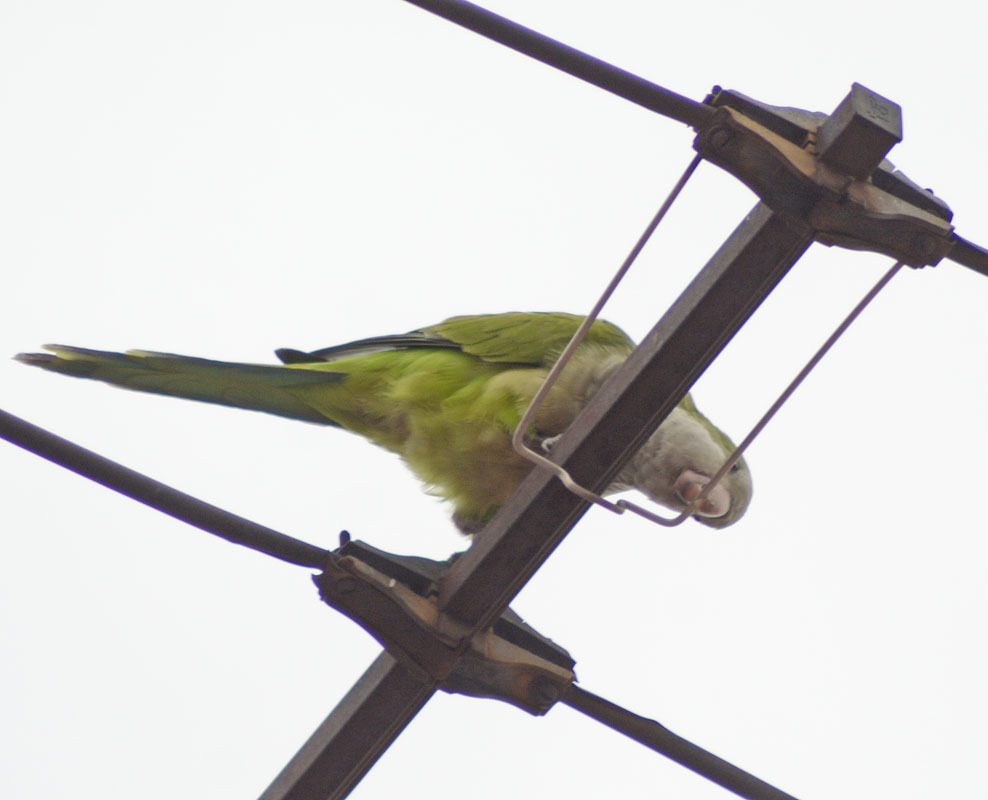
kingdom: Animalia
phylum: Chordata
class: Aves
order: Psittaciformes
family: Psittacidae
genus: Myiopsitta
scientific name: Myiopsitta monachus
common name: Monk parakeet
